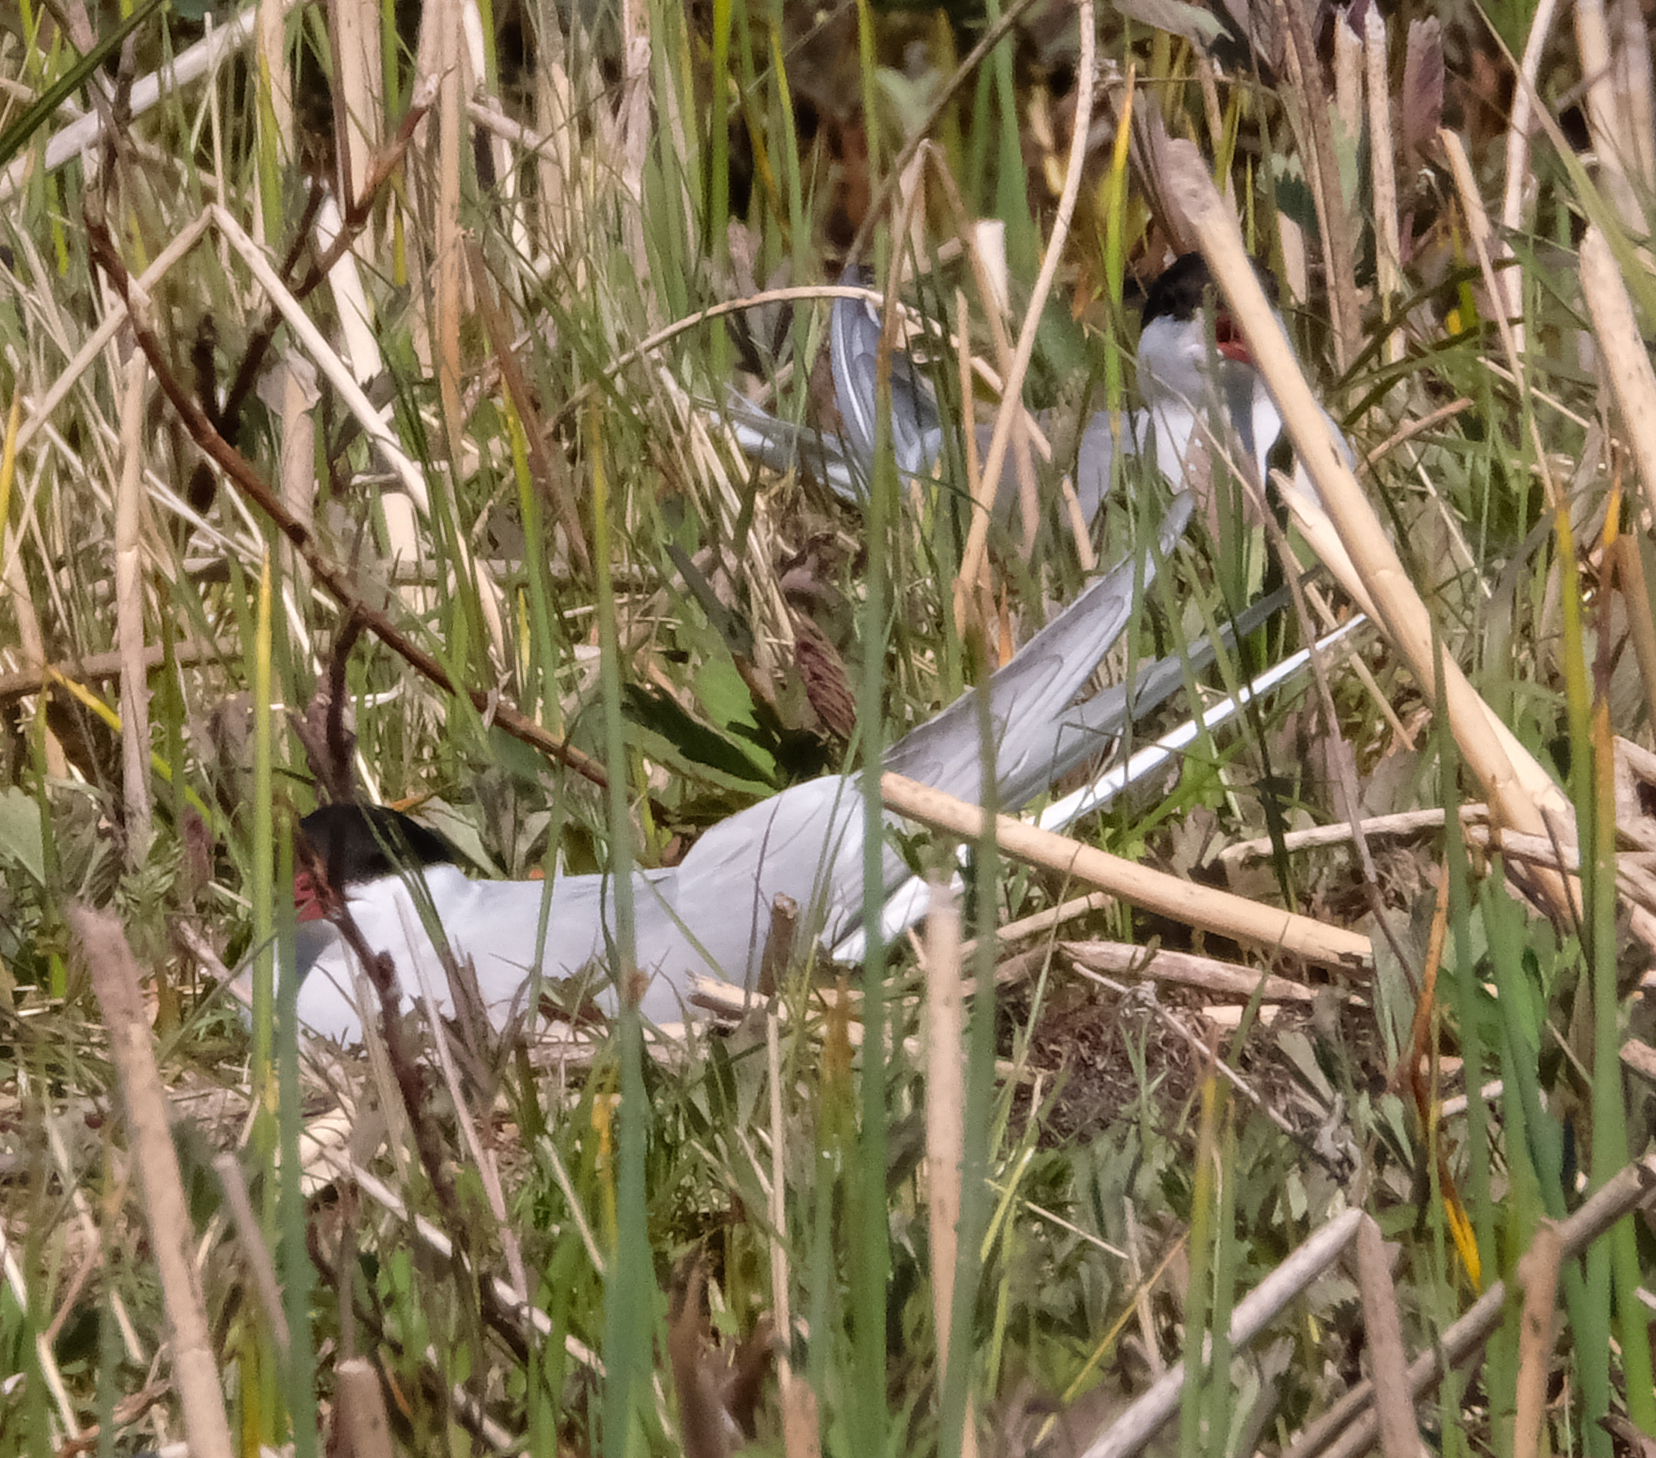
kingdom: Animalia
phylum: Chordata
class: Aves
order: Charadriiformes
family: Laridae
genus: Sterna
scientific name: Sterna paradisaea
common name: Arctic tern
